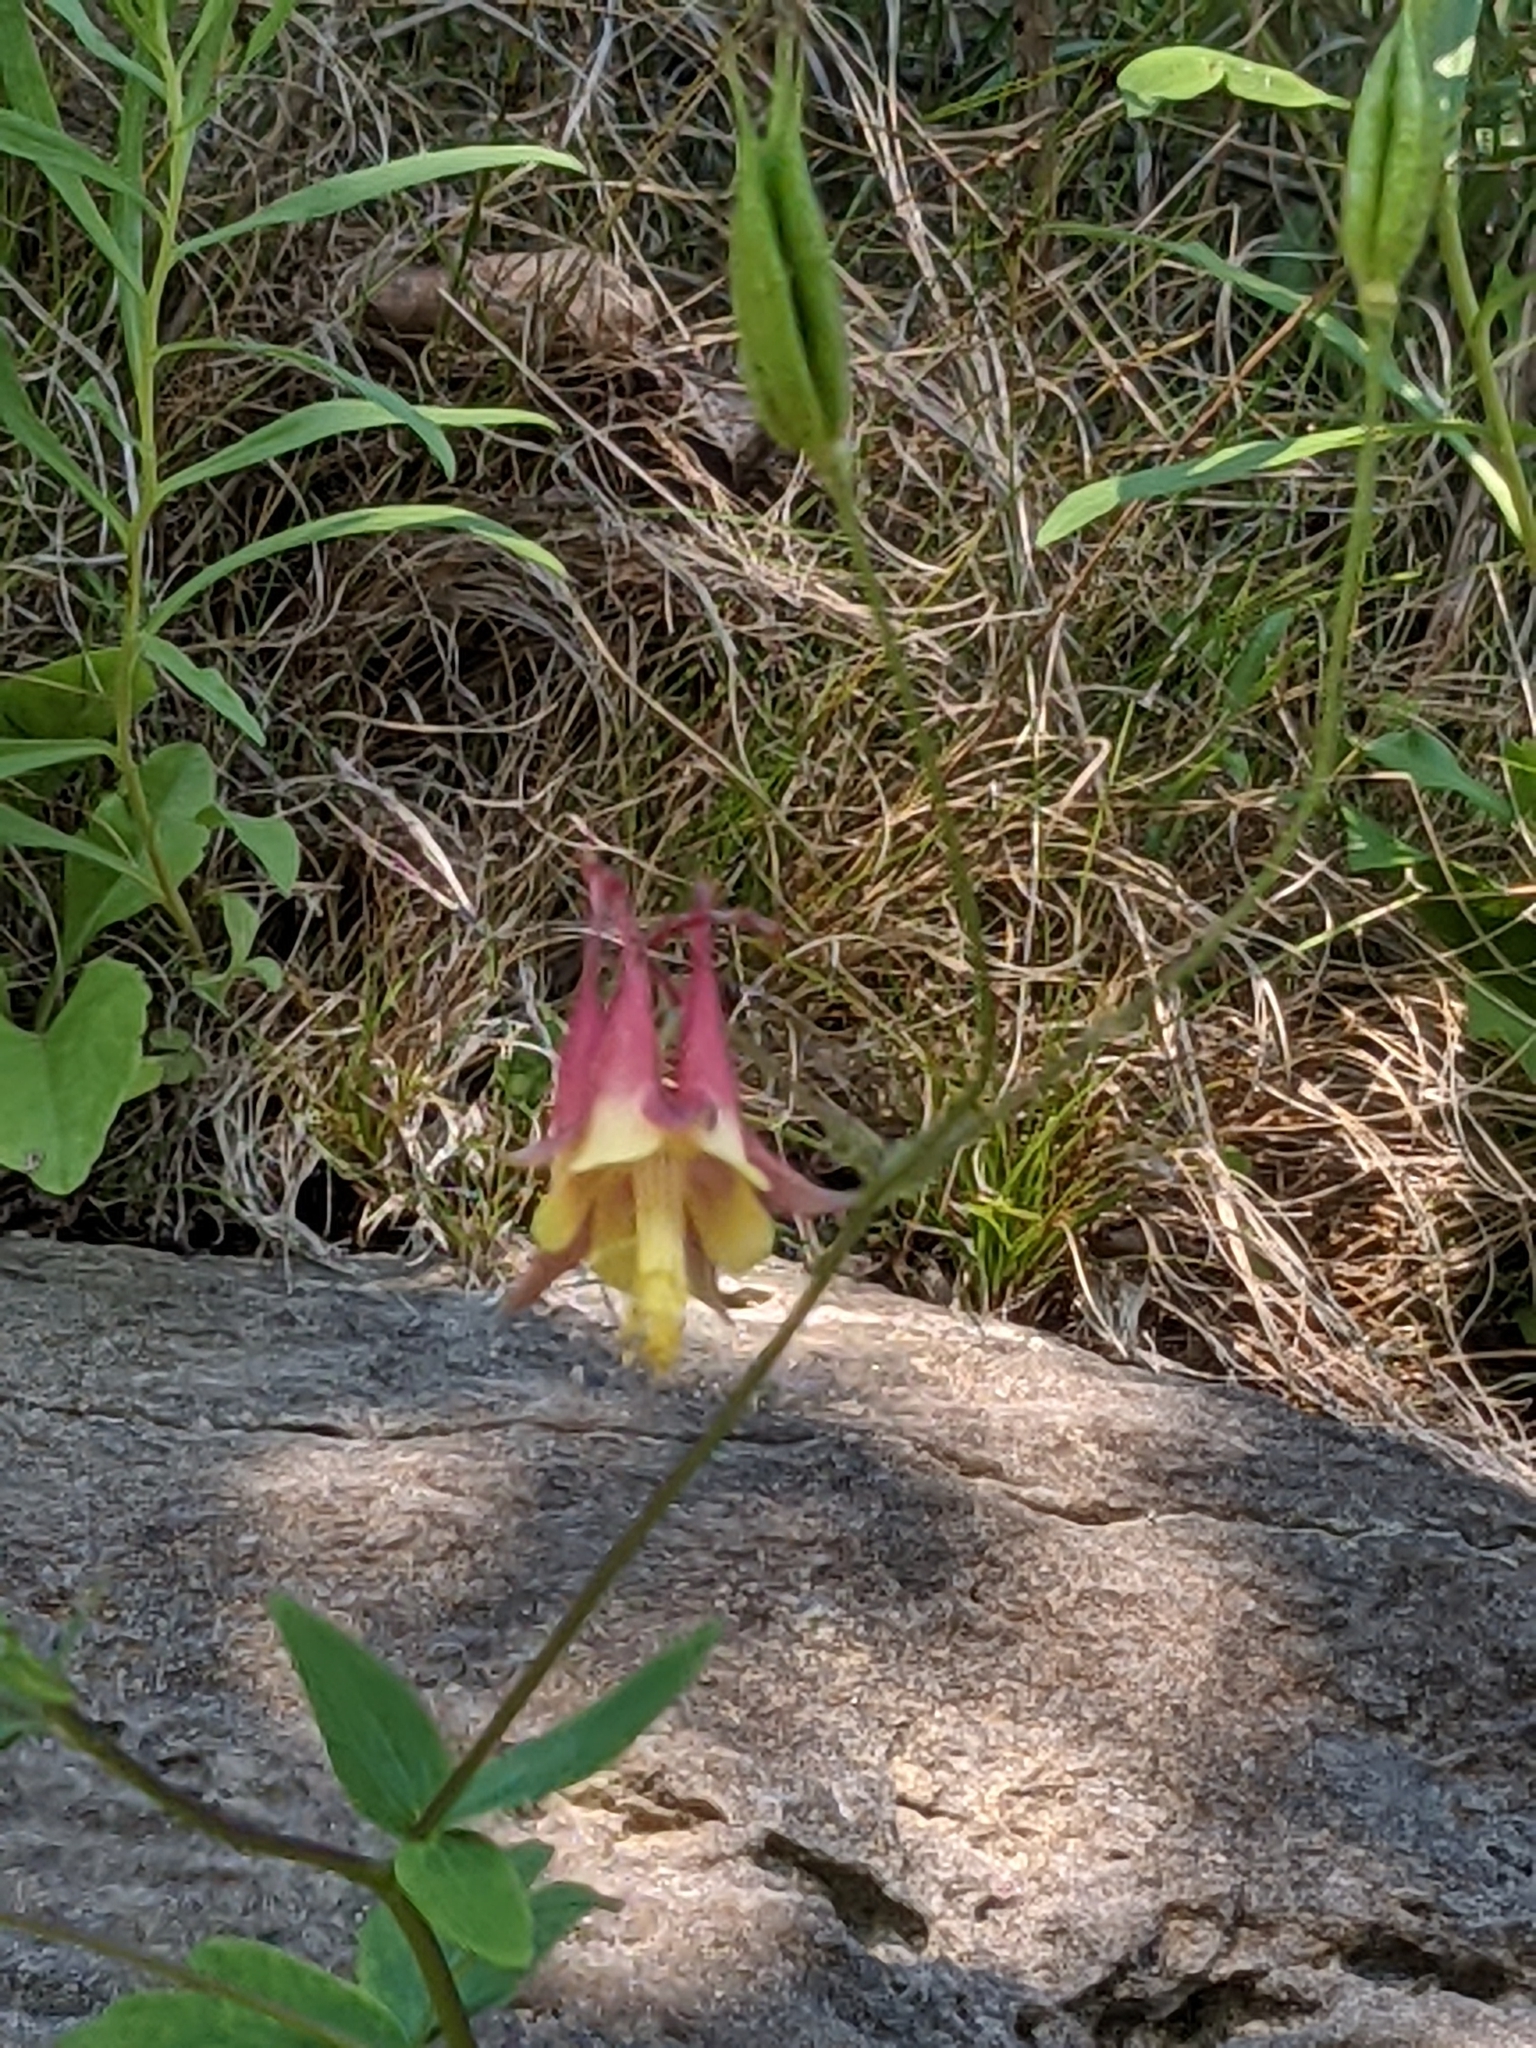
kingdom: Plantae
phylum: Tracheophyta
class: Magnoliopsida
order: Ranunculales
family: Ranunculaceae
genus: Aquilegia
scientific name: Aquilegia canadensis
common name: American columbine
